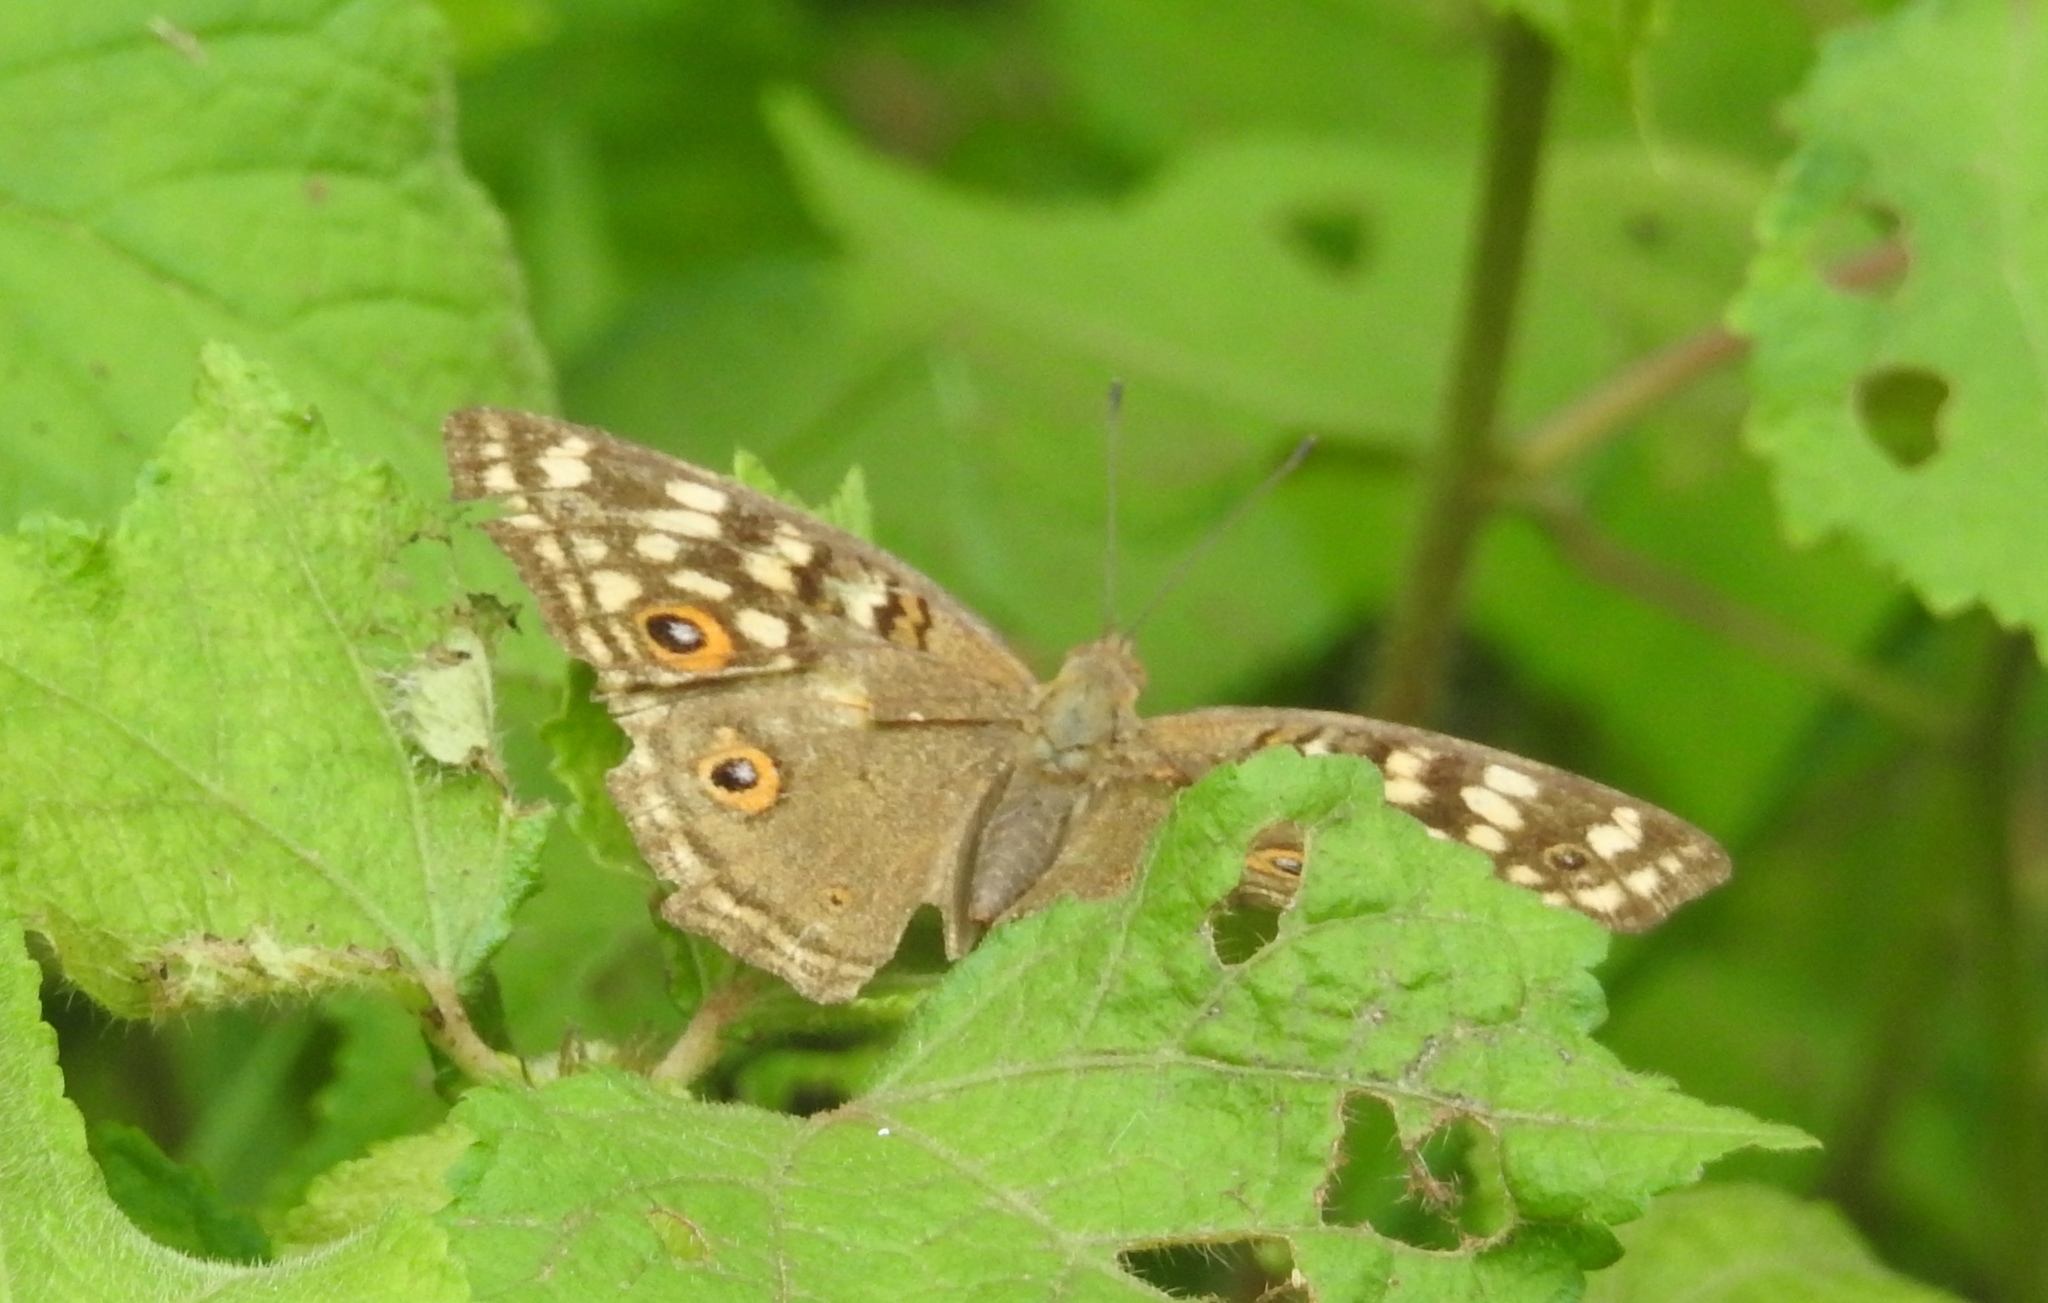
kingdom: Animalia
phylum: Arthropoda
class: Insecta
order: Lepidoptera
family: Nymphalidae
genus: Junonia
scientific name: Junonia lemonias
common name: Lemon pansy
